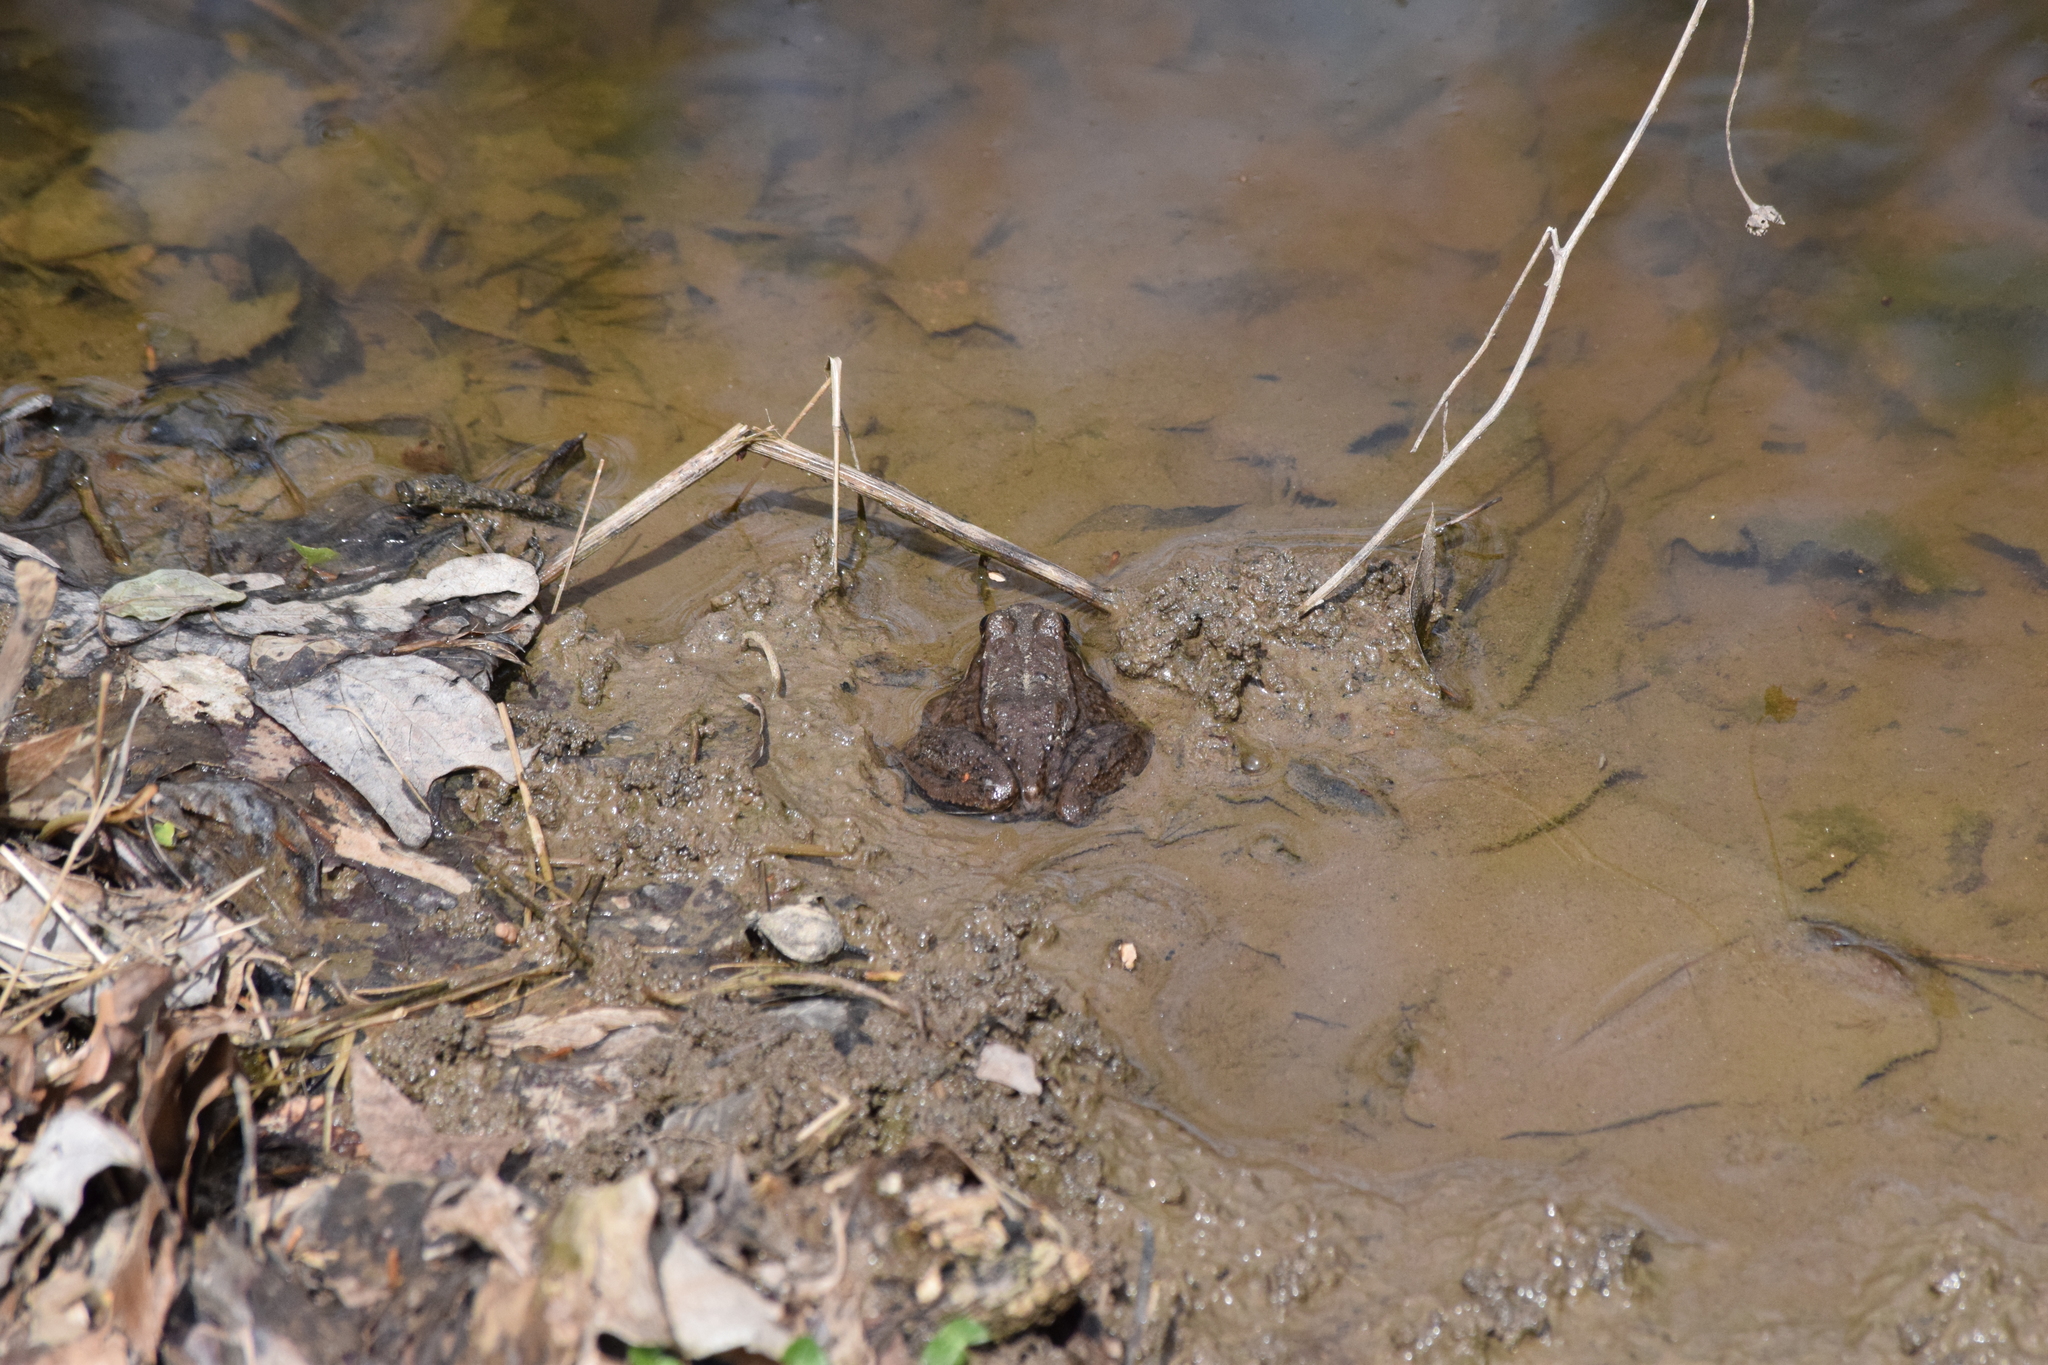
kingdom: Animalia
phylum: Chordata
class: Amphibia
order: Anura
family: Ranidae
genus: Lithobates
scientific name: Lithobates clamitans
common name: Green frog
